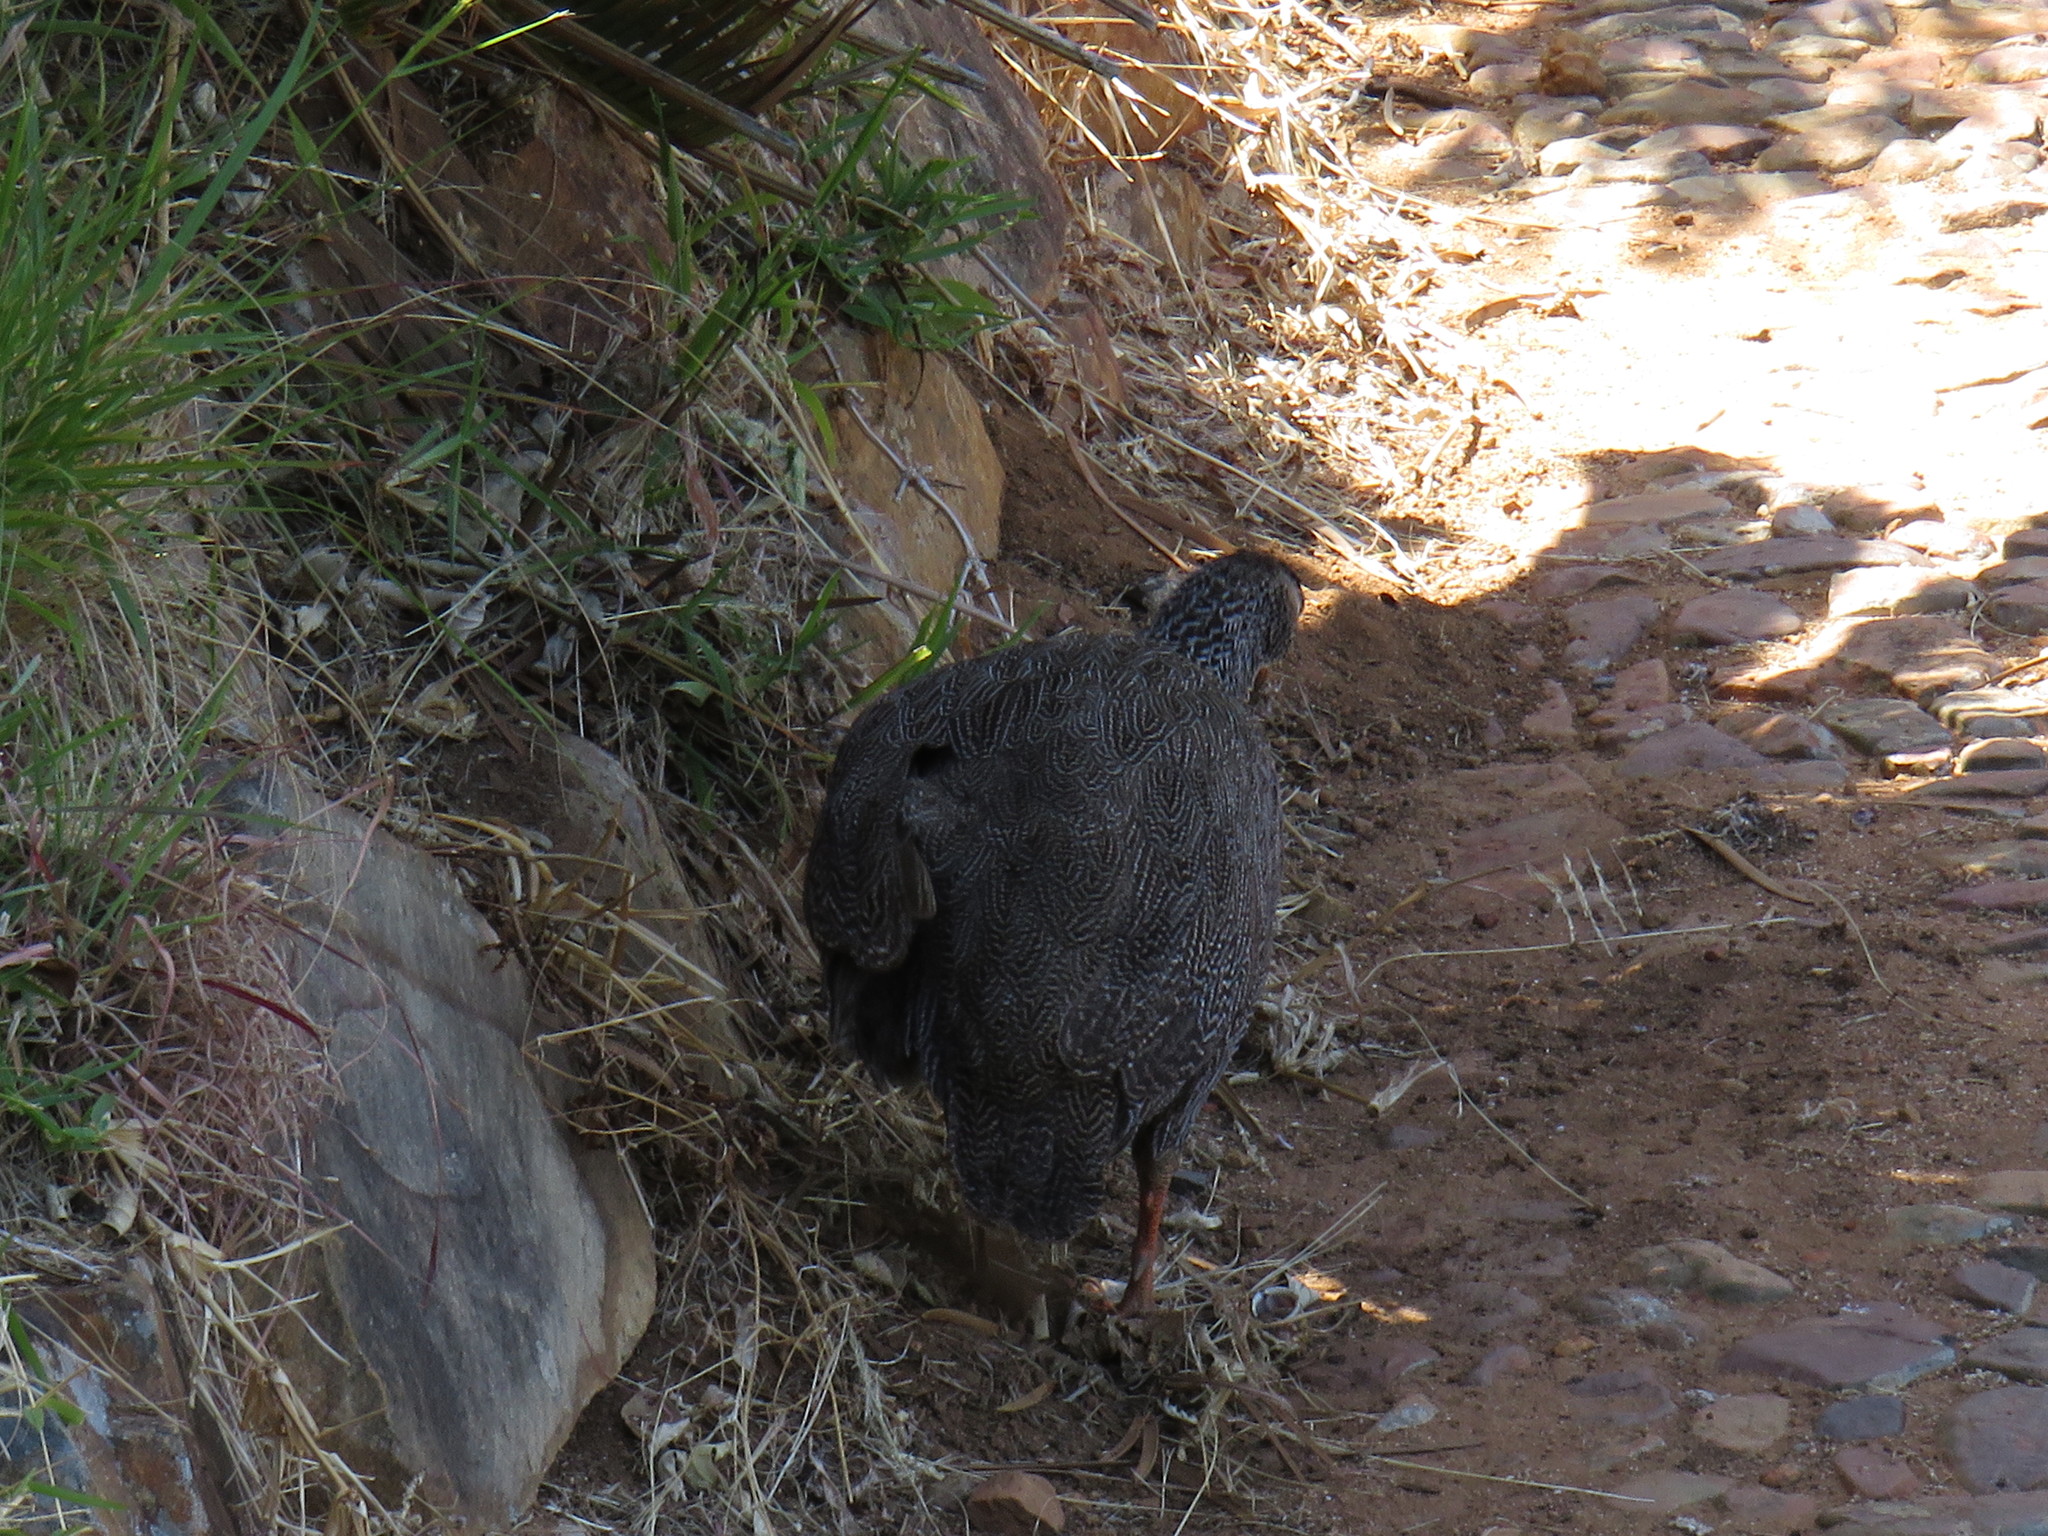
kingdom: Animalia
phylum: Chordata
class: Aves
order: Galliformes
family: Phasianidae
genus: Pternistis
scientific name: Pternistis capensis
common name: Cape spurfowl
